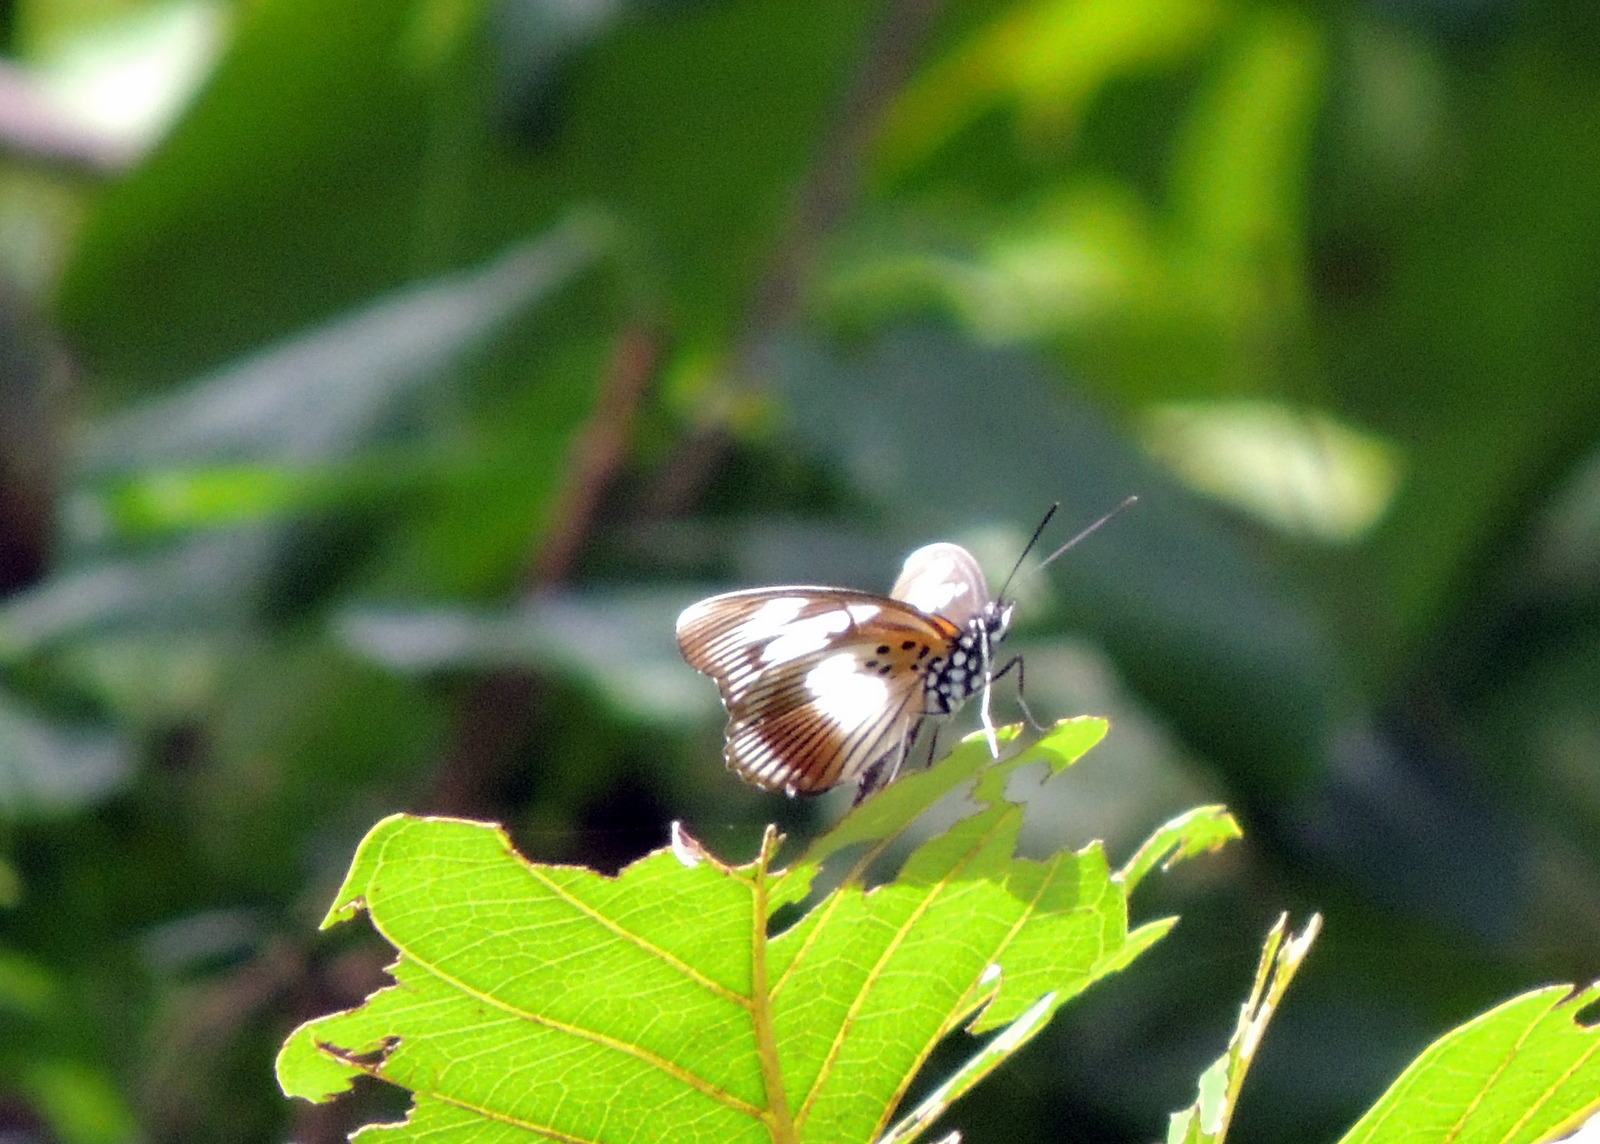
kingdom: Animalia
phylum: Arthropoda
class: Insecta
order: Lepidoptera
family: Nymphalidae
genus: Chloropoea
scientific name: Chloropoea lucretia
